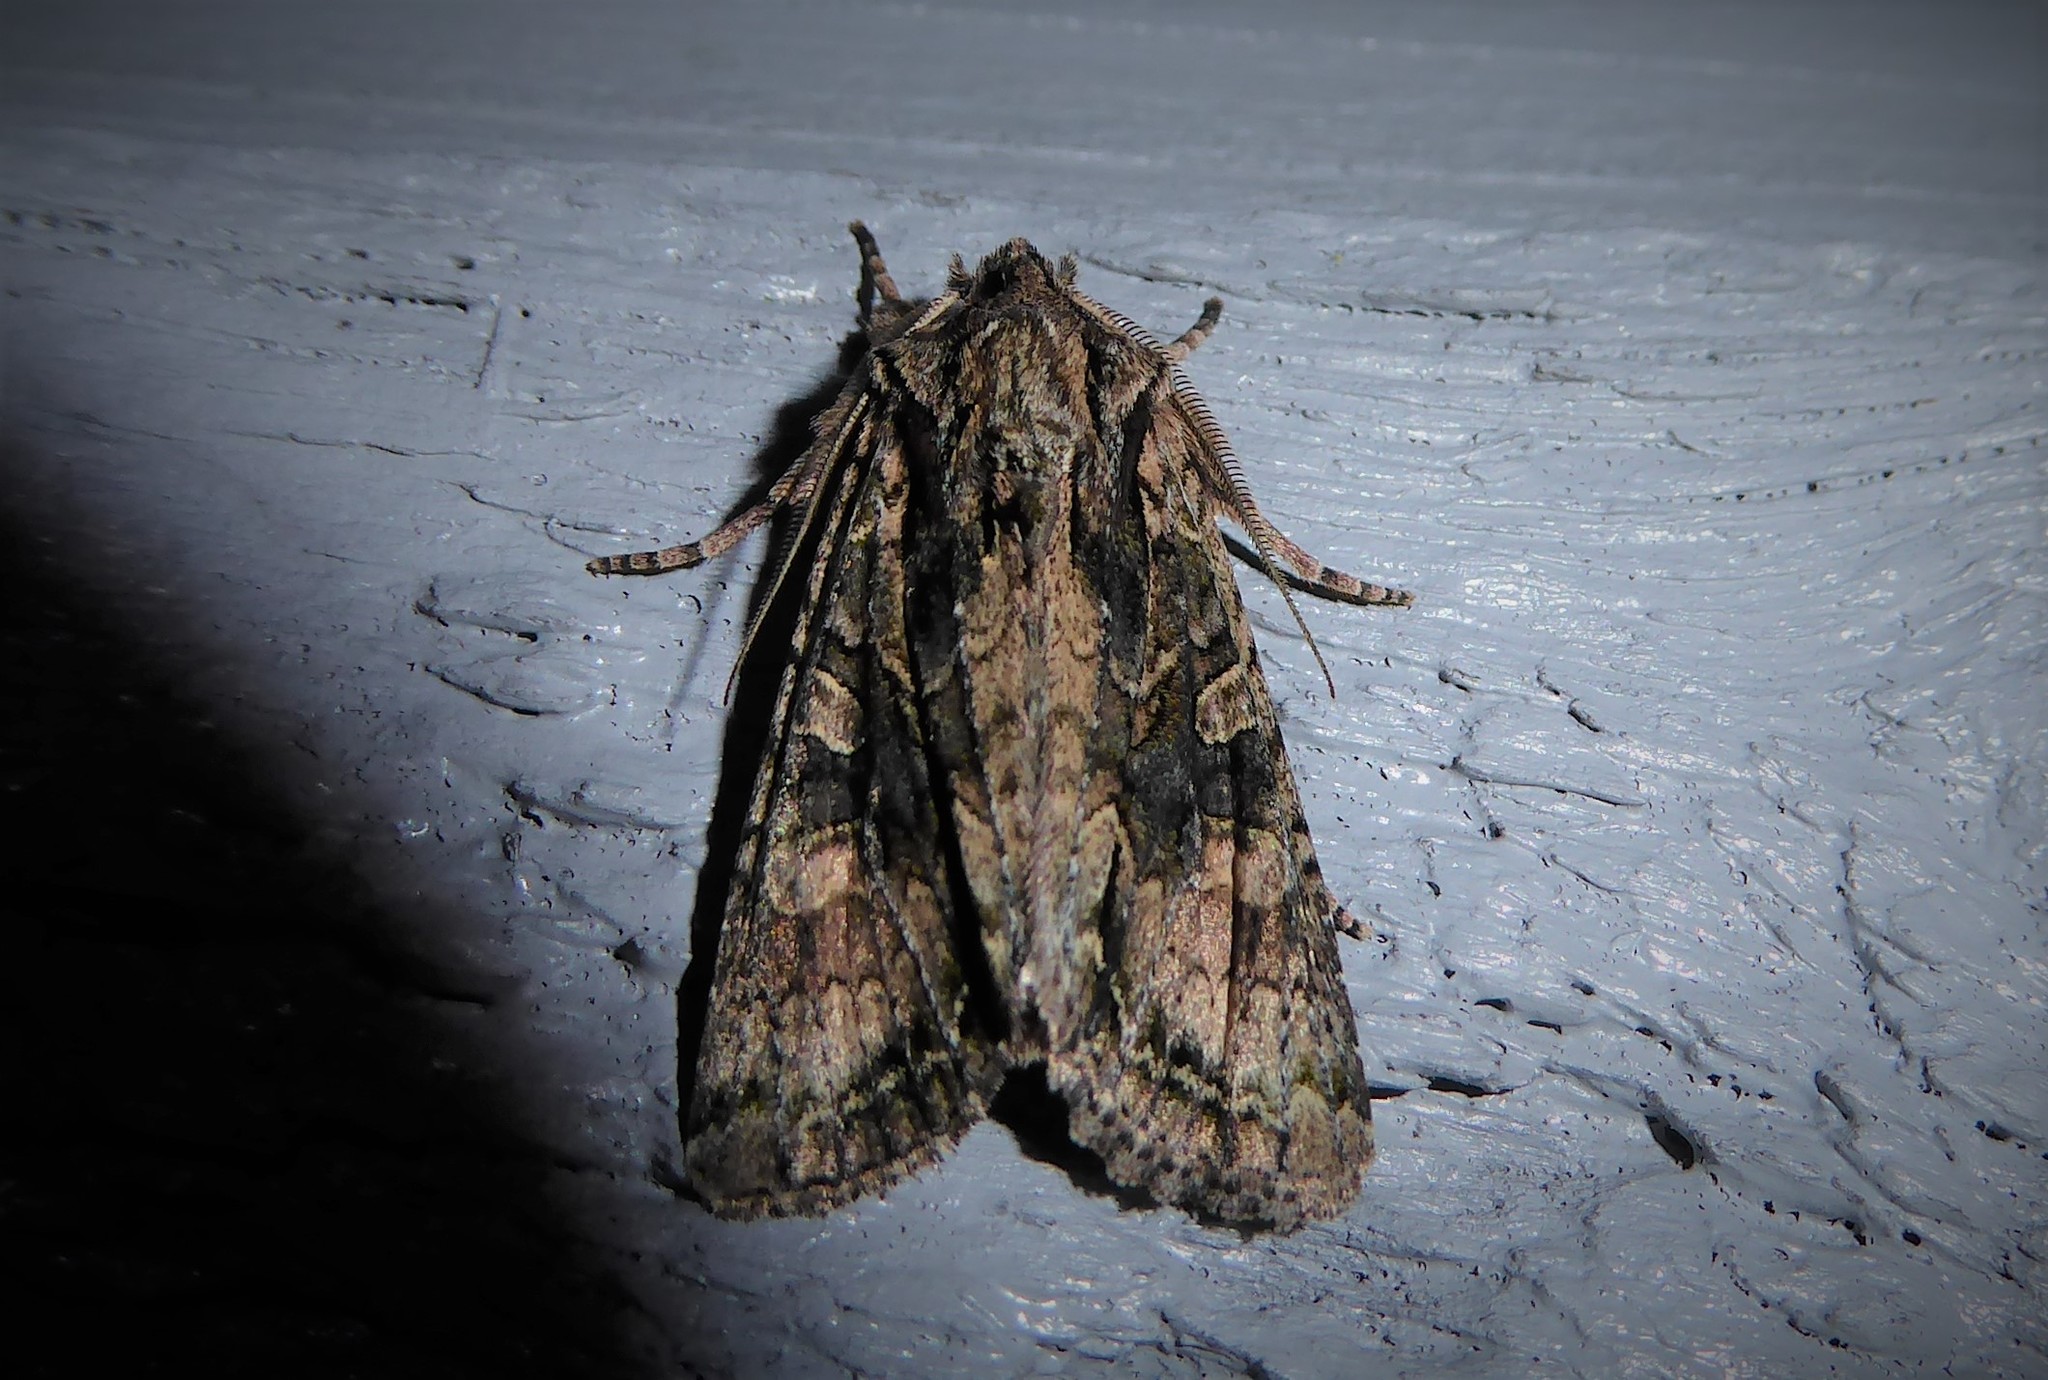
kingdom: Animalia
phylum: Arthropoda
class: Insecta
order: Lepidoptera
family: Noctuidae
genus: Ichneutica
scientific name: Ichneutica mutans
